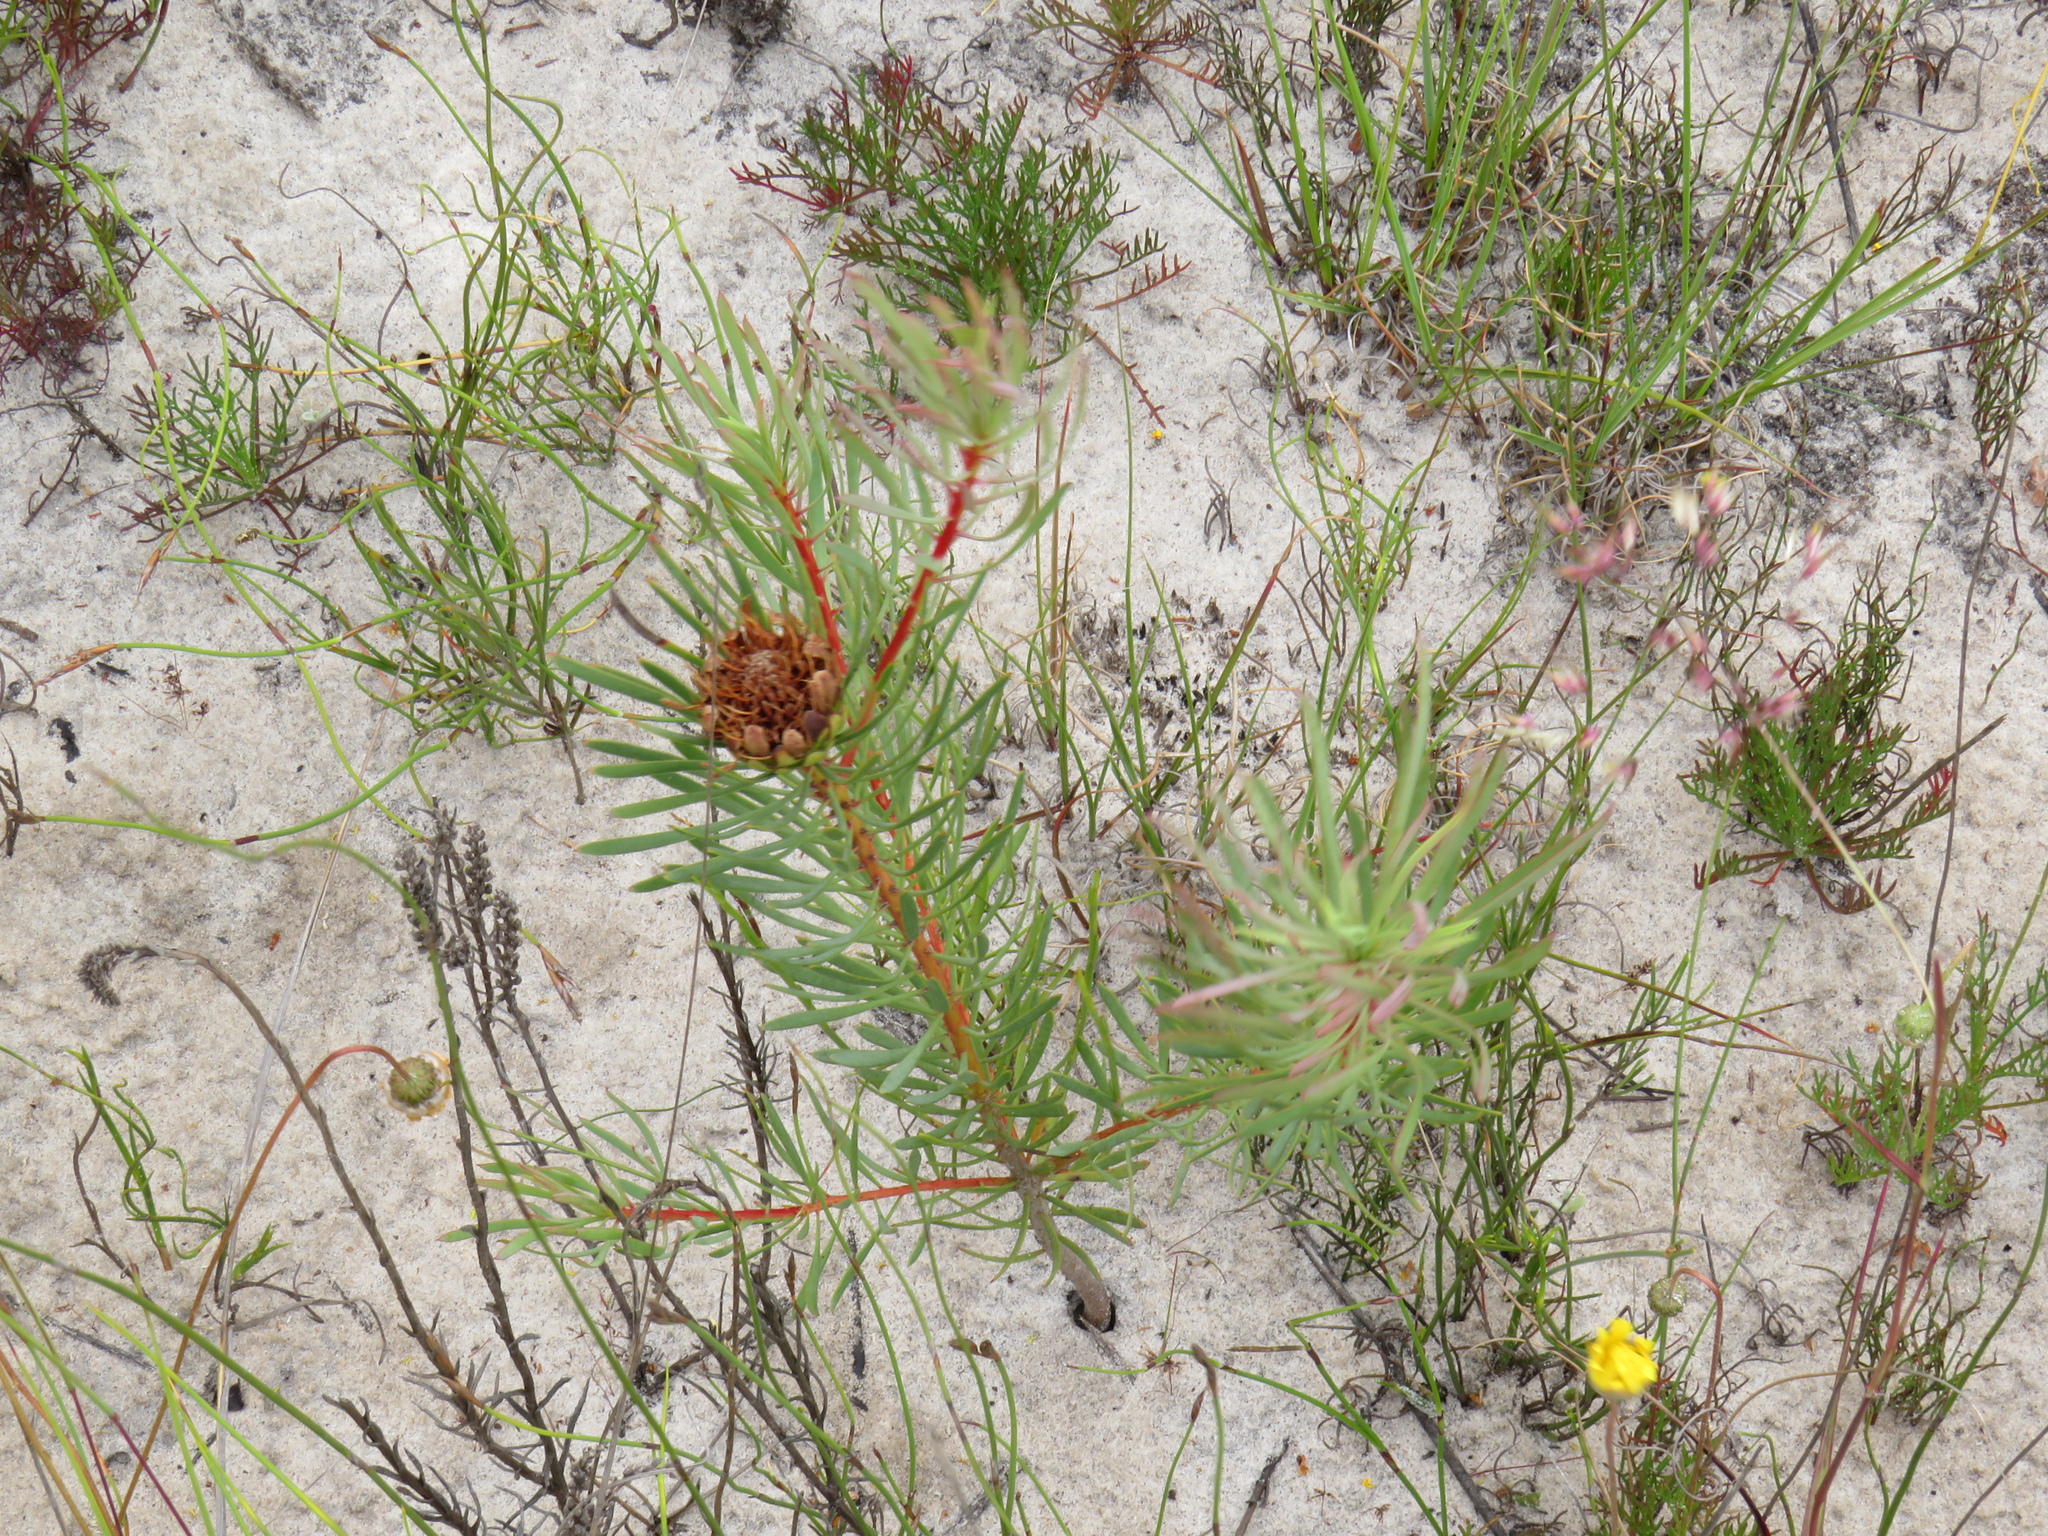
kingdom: Plantae
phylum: Tracheophyta
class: Magnoliopsida
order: Proteales
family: Proteaceae
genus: Protea
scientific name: Protea scolymocephala
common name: Thistle sugarbush
